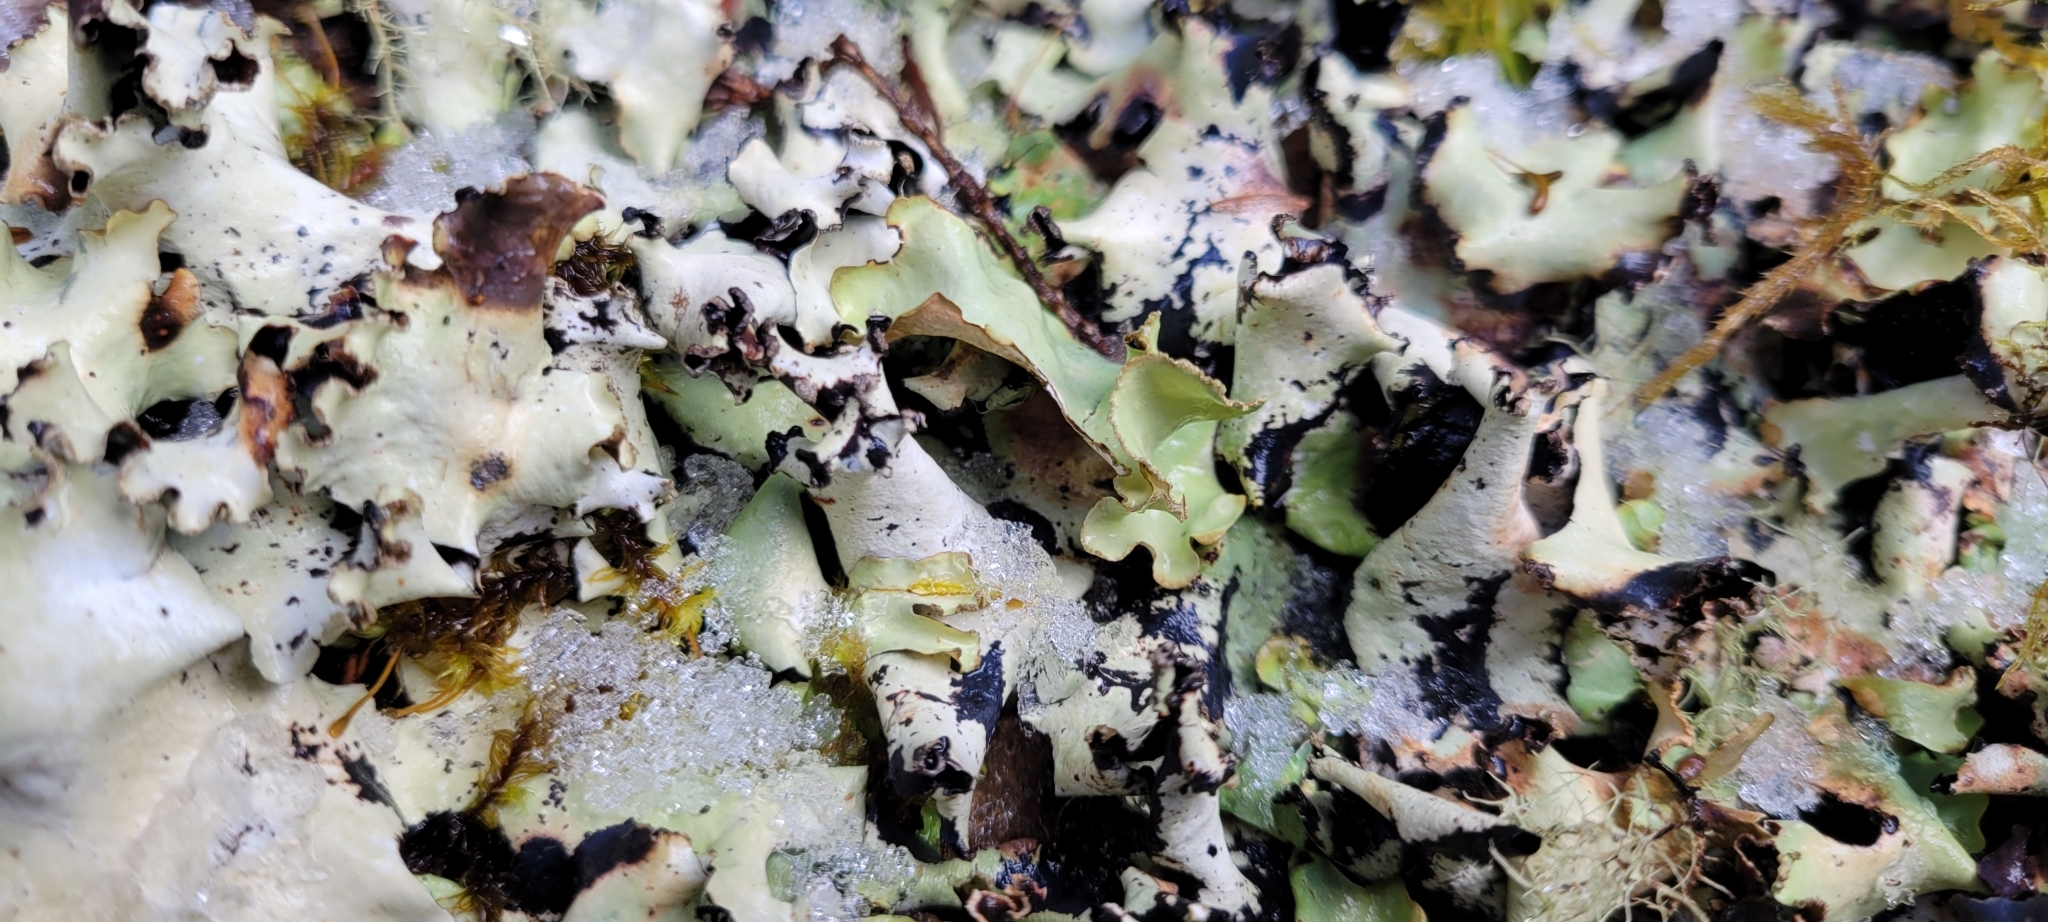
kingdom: Fungi
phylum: Ascomycota
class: Lecanoromycetes
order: Lecanorales
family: Parmeliaceae
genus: Cetrelia
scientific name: Cetrelia cetrarioides
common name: Speckled iceland lichen
